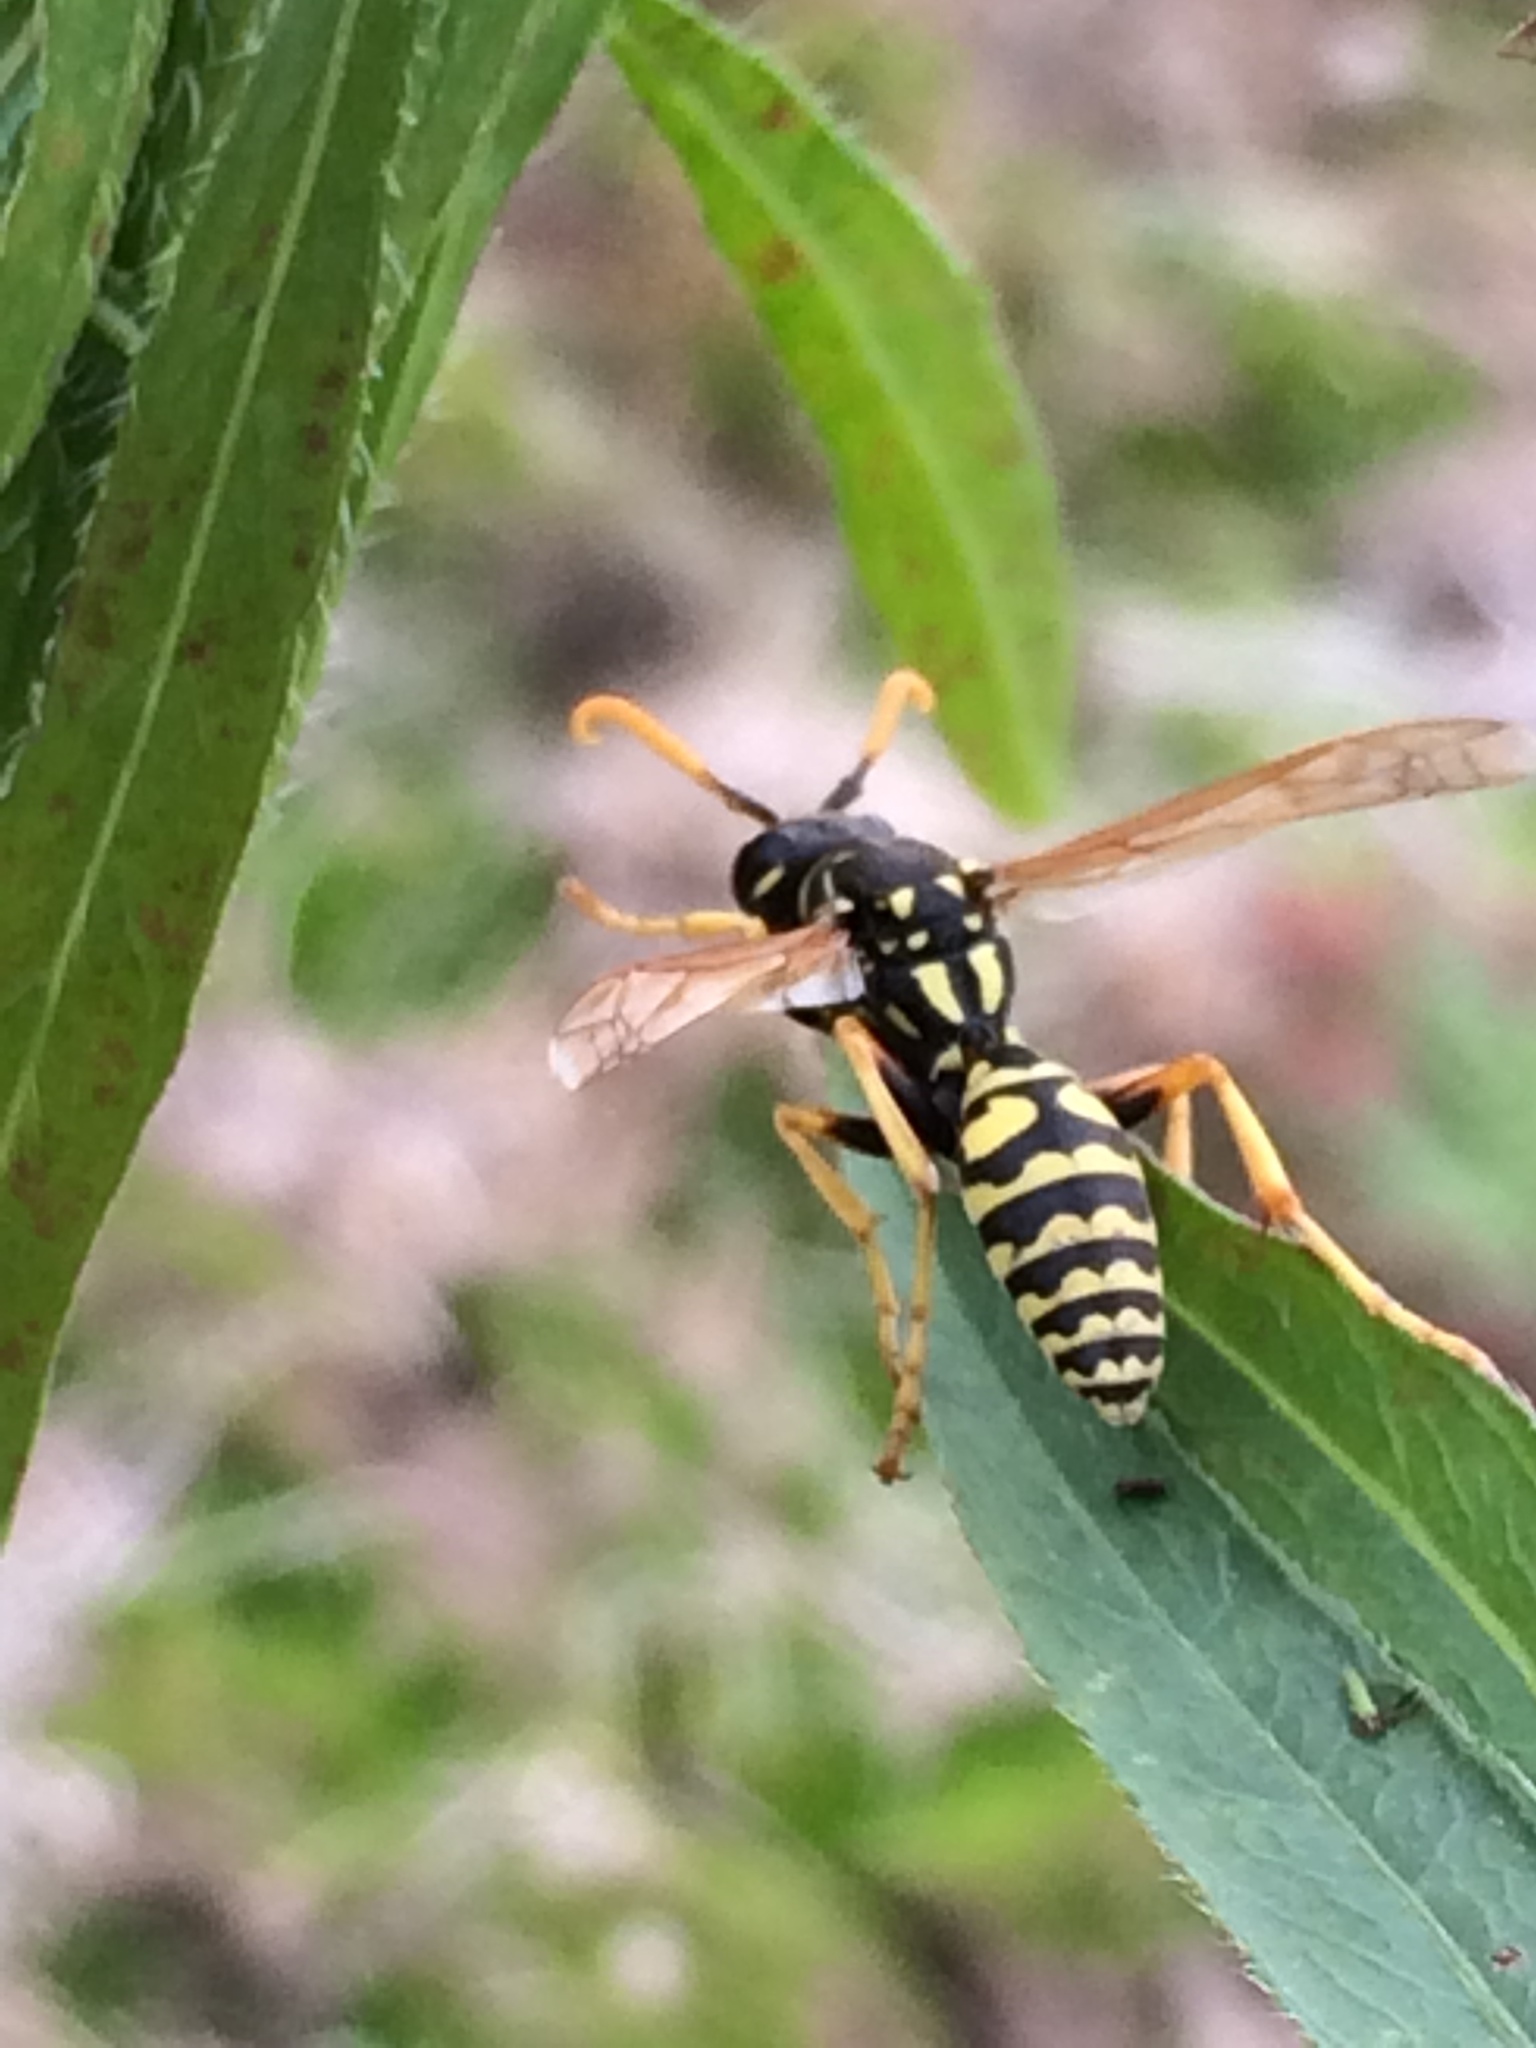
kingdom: Animalia
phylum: Arthropoda
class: Insecta
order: Hymenoptera
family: Eumenidae
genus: Polistes
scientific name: Polistes dominula
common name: Paper wasp
